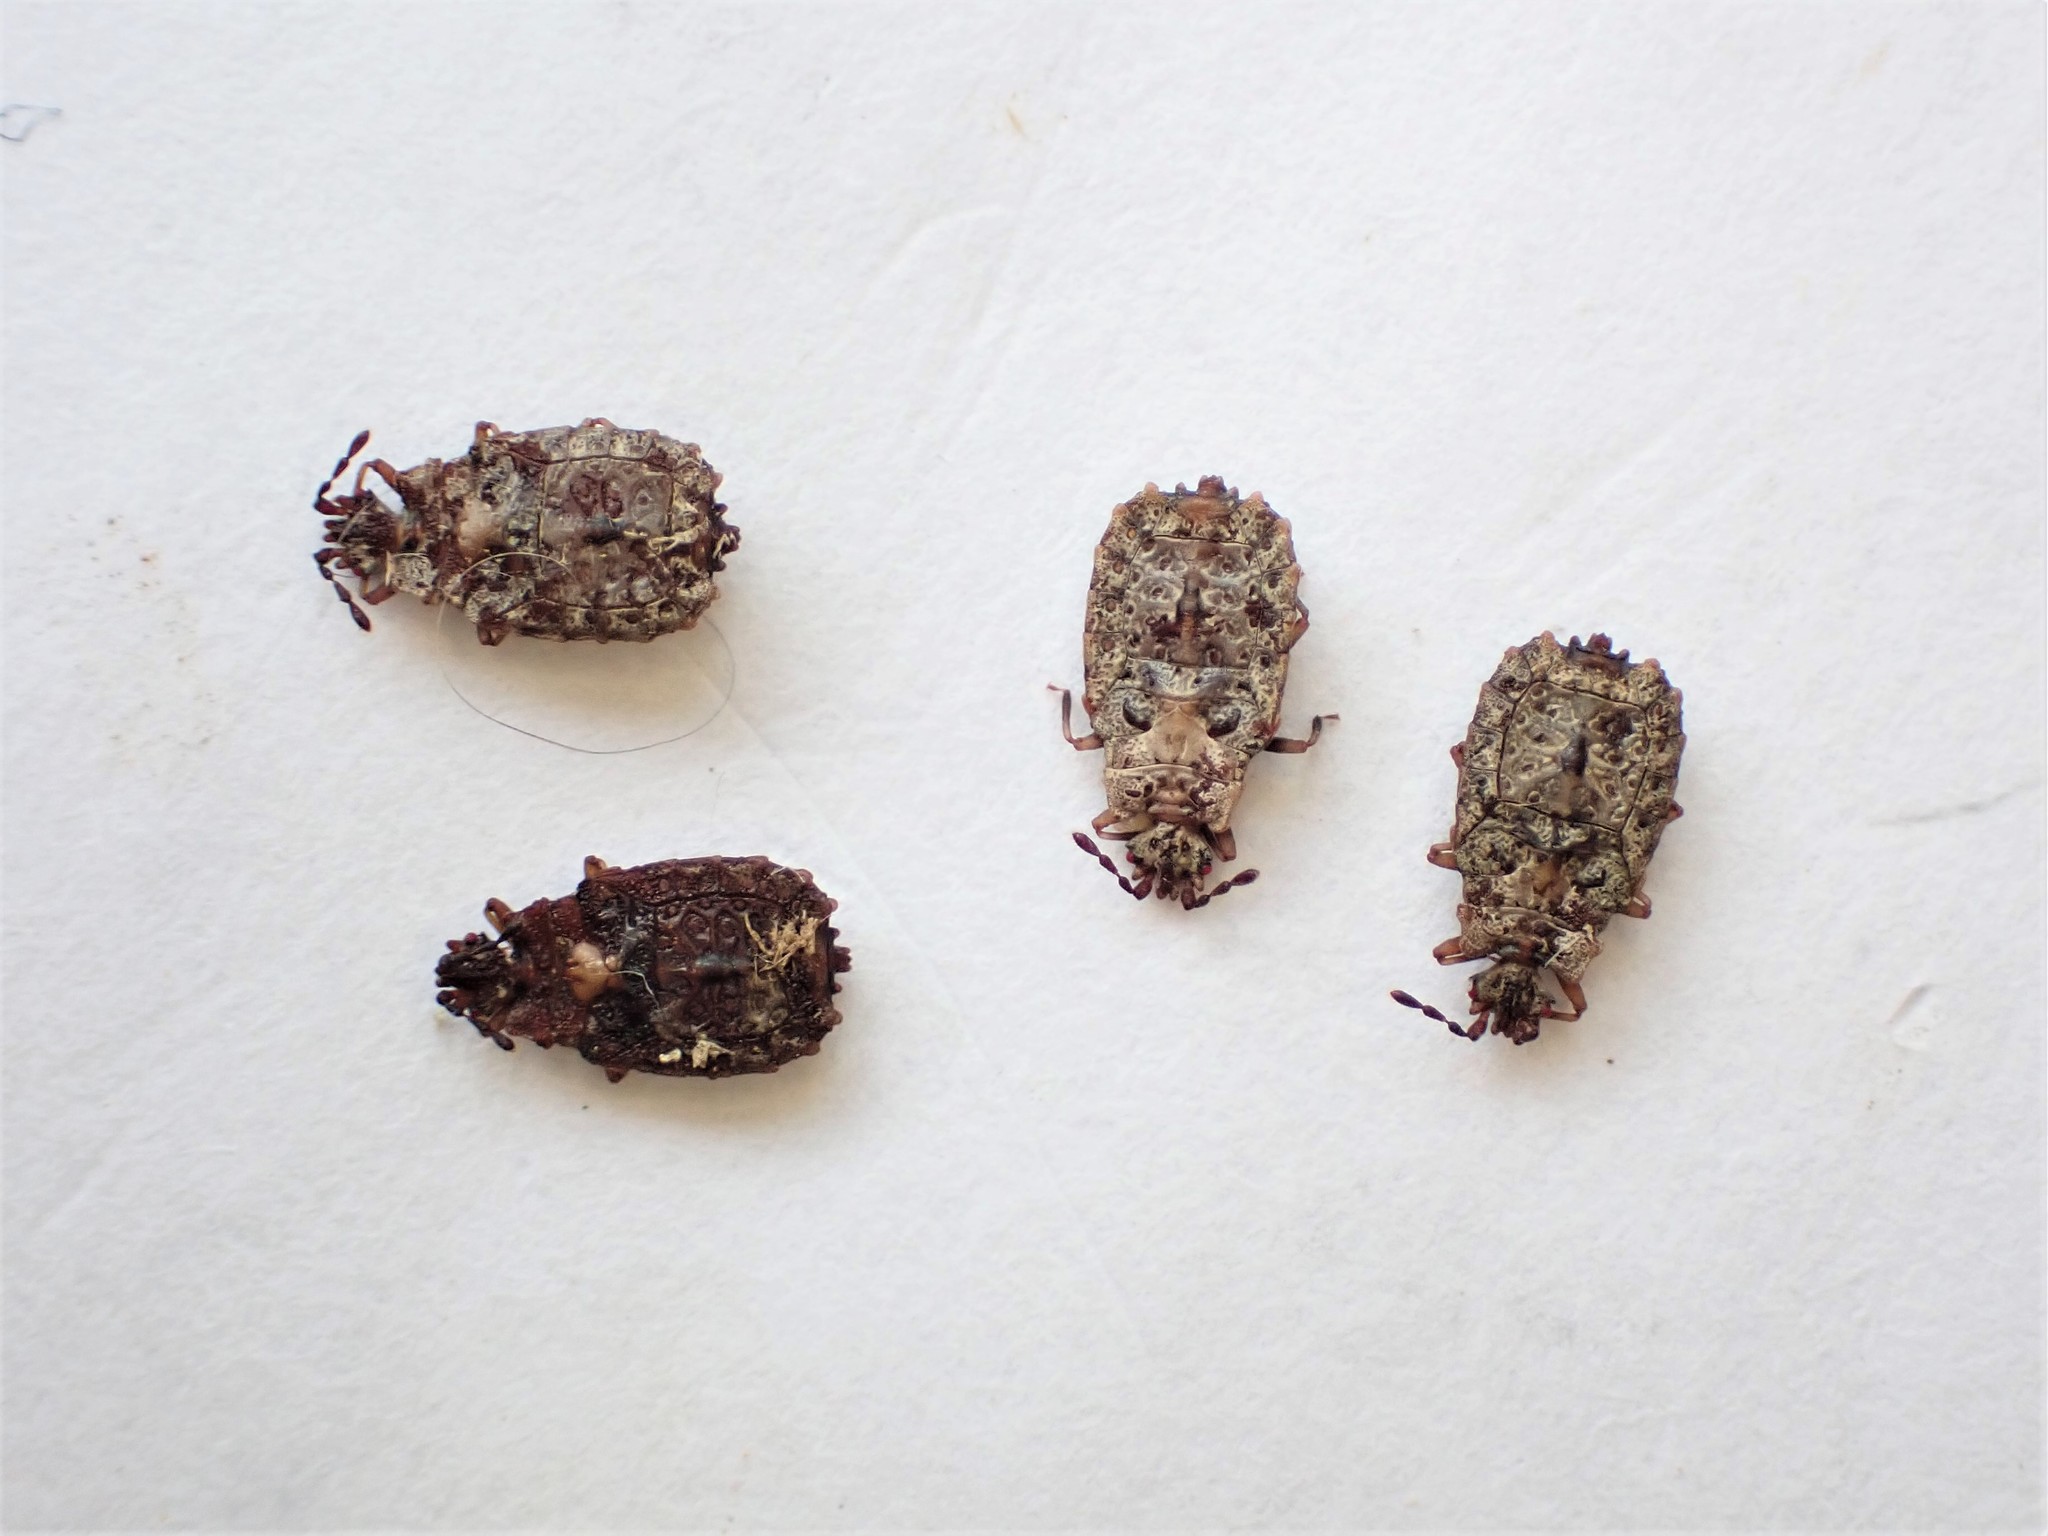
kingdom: Animalia
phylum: Arthropoda
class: Insecta
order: Hemiptera
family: Aradidae
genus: Carventaptera
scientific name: Carventaptera spinifera
